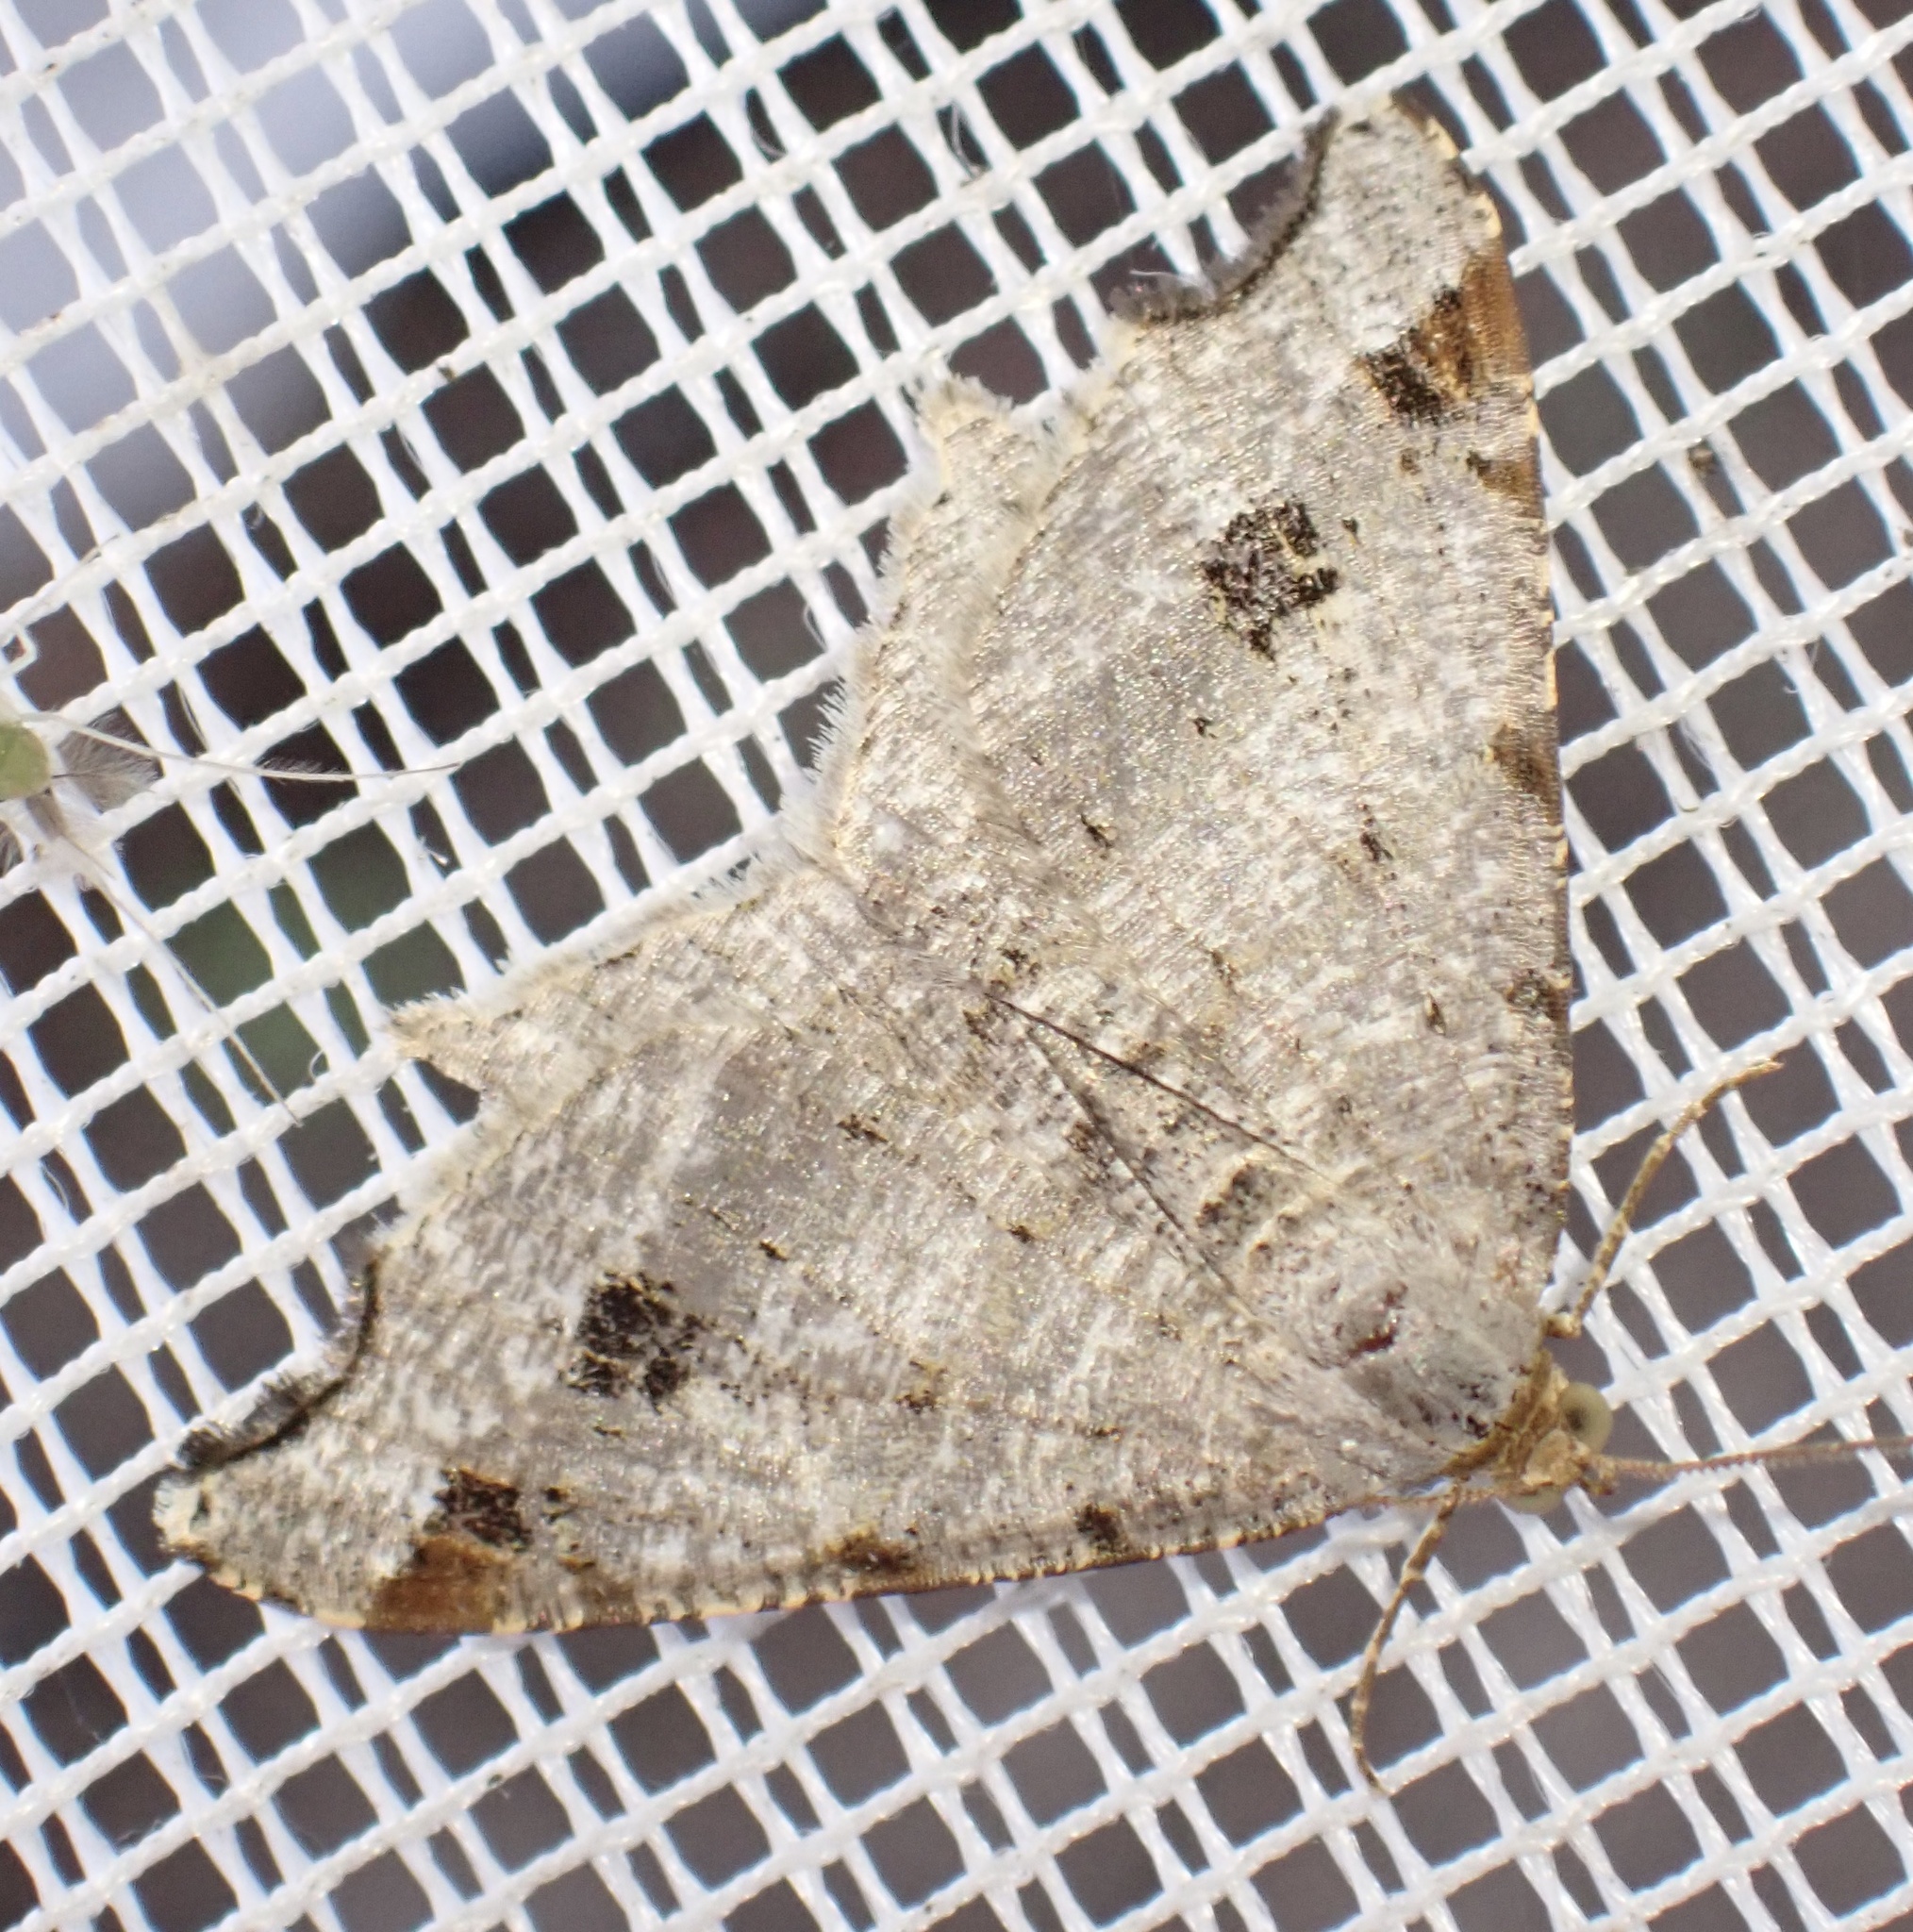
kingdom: Animalia
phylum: Arthropoda
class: Insecta
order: Lepidoptera
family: Geometridae
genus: Macaria
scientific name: Macaria alternata
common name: Sharp-angled peacock
